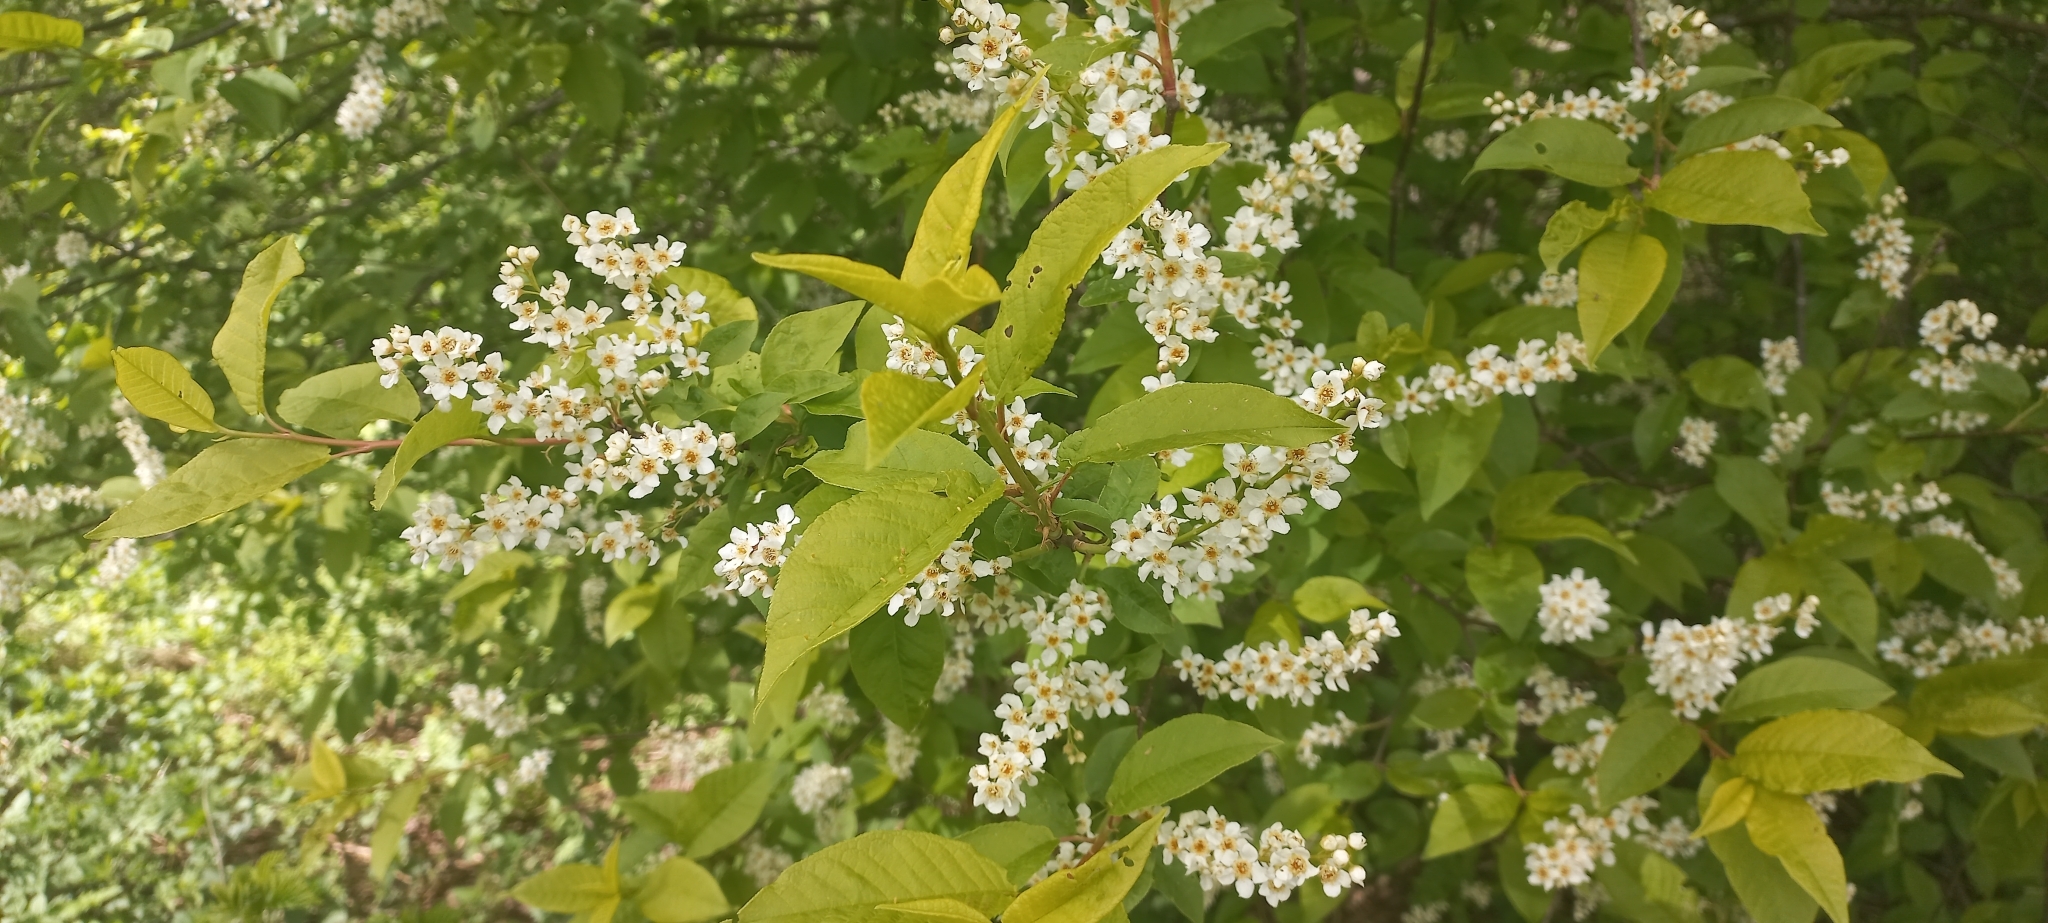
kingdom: Plantae
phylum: Tracheophyta
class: Magnoliopsida
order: Rosales
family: Rosaceae
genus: Prunus
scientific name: Prunus padus
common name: Bird cherry
